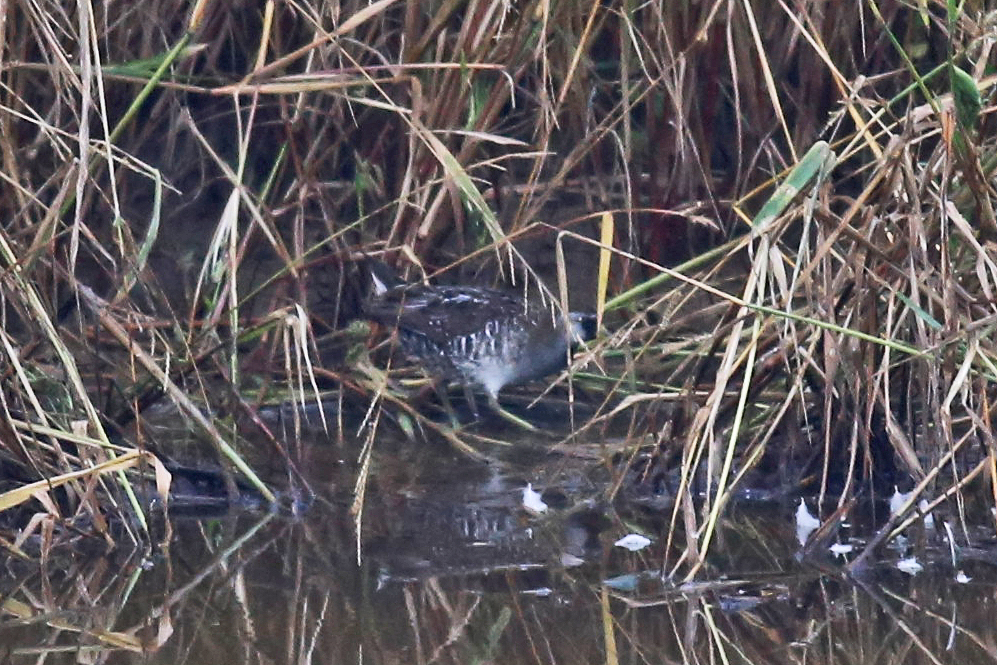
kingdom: Animalia
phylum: Chordata
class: Aves
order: Gruiformes
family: Rallidae
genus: Porzana
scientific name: Porzana carolina
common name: Sora
